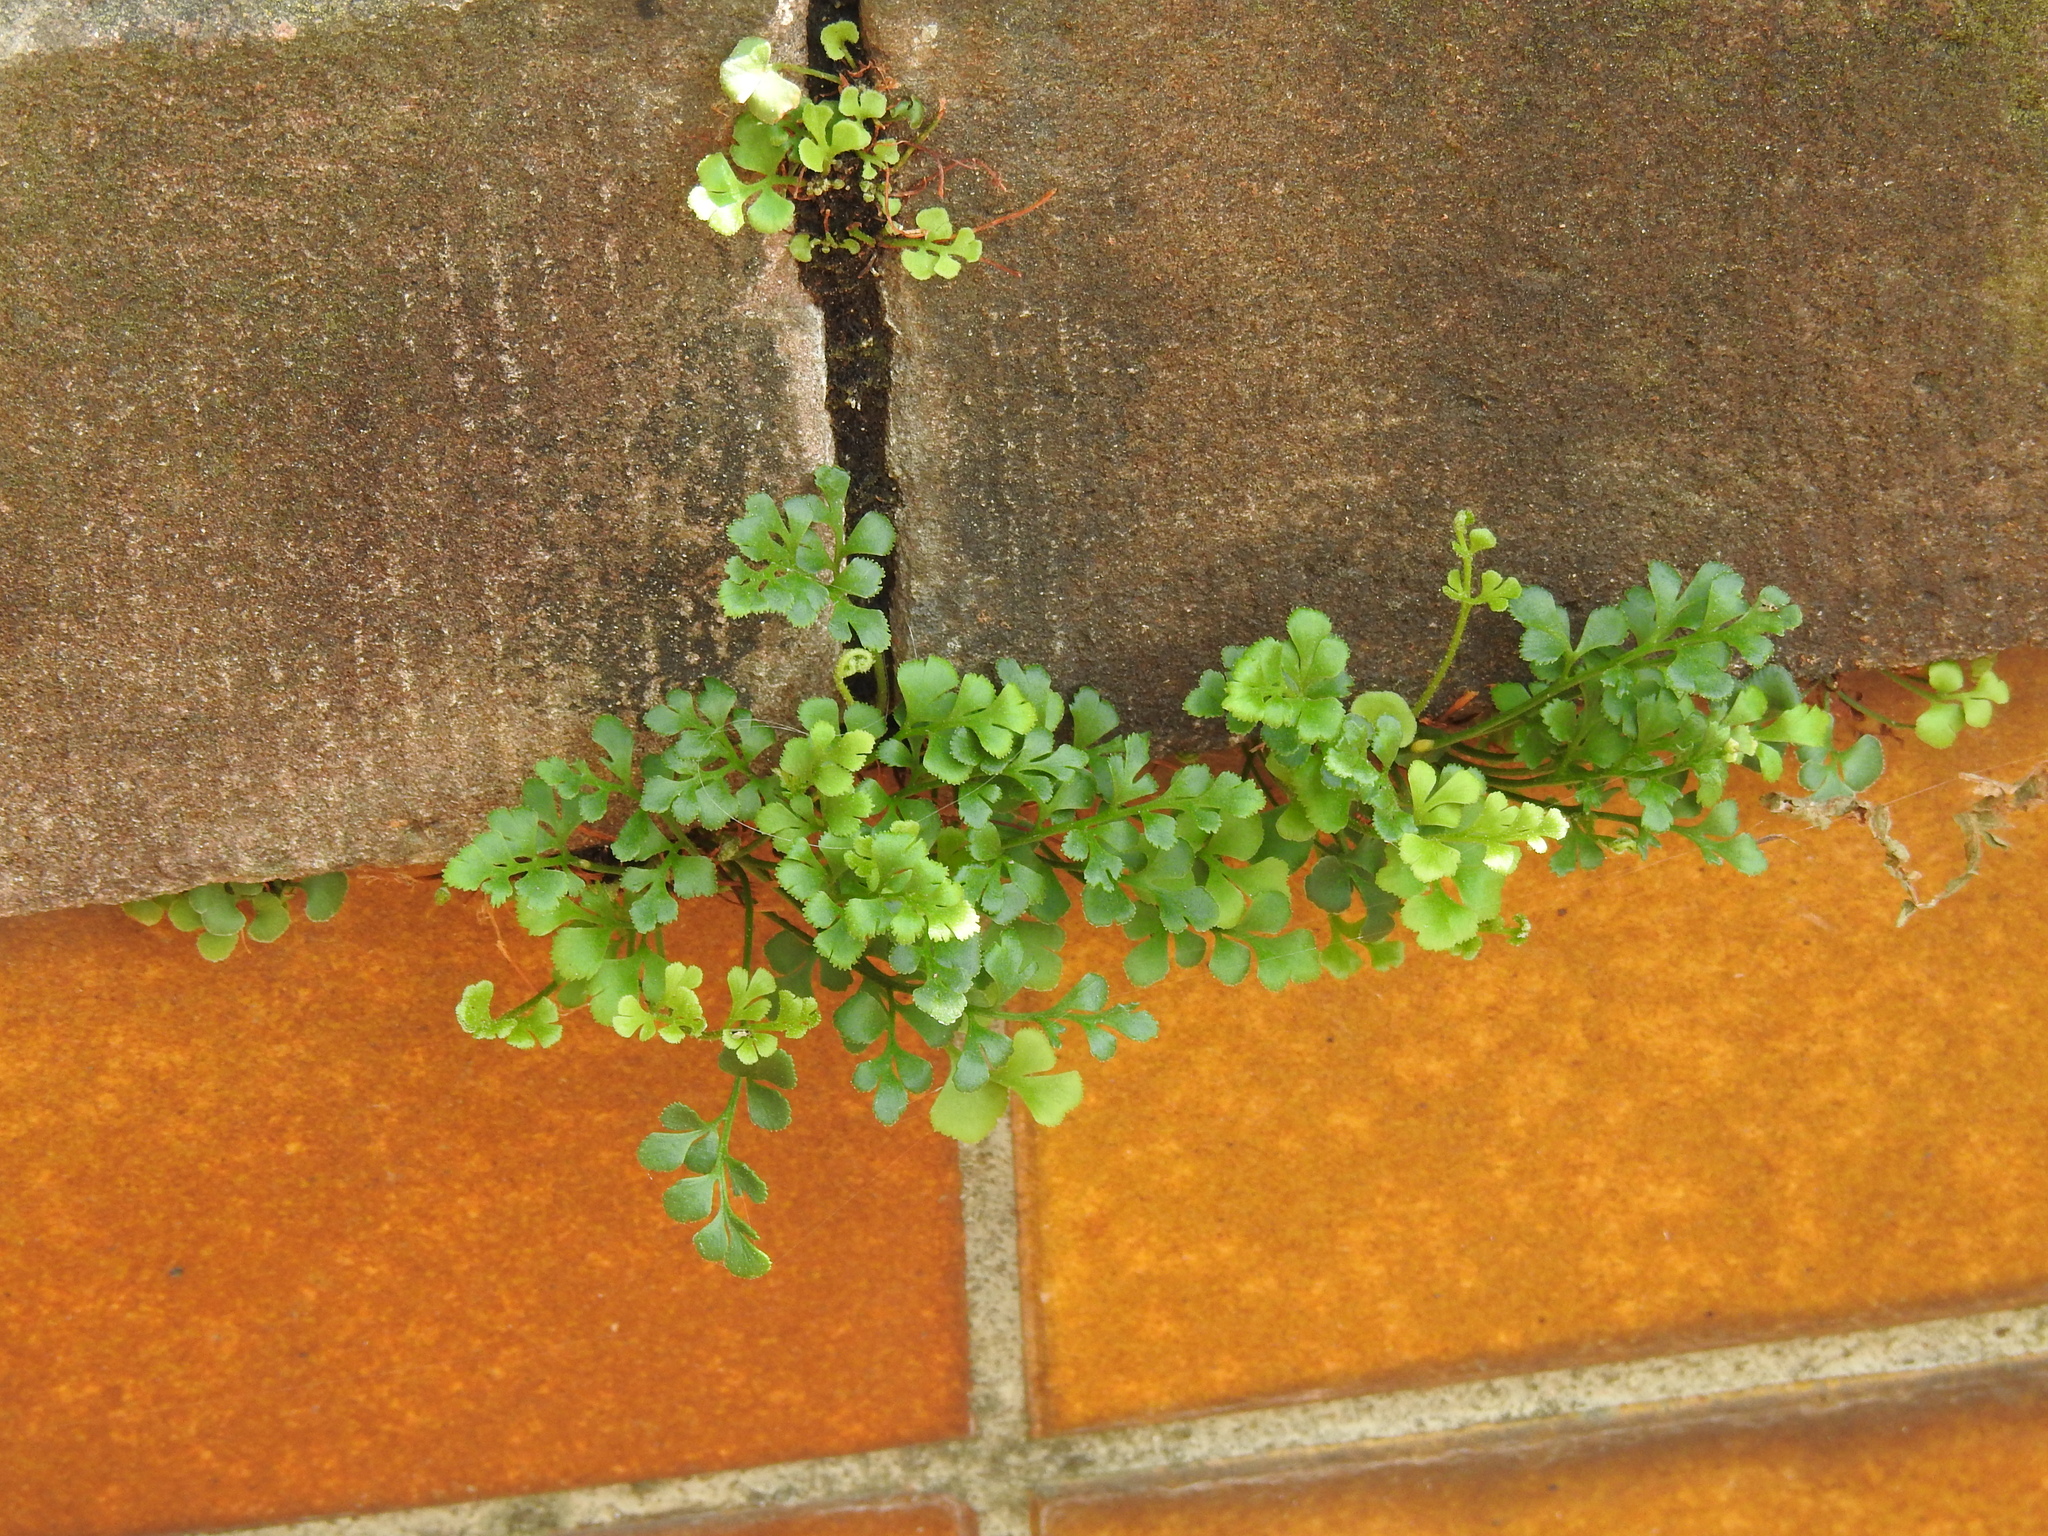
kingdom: Plantae
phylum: Tracheophyta
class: Polypodiopsida
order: Polypodiales
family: Aspleniaceae
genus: Asplenium
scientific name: Asplenium ruta-muraria
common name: Wall-rue
